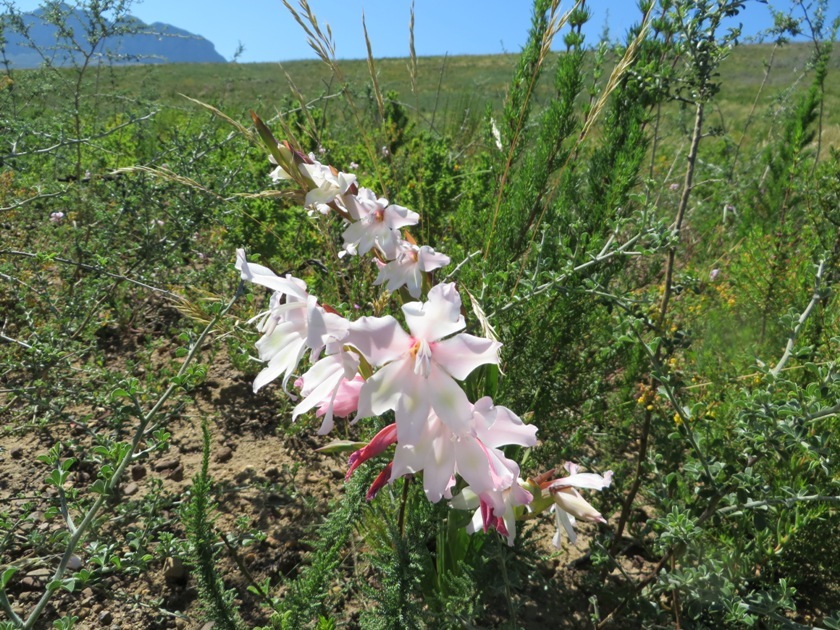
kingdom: Plantae
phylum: Tracheophyta
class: Liliopsida
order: Asparagales
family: Iridaceae
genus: Gladiolus
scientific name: Gladiolus carneus
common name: Painted-lady
